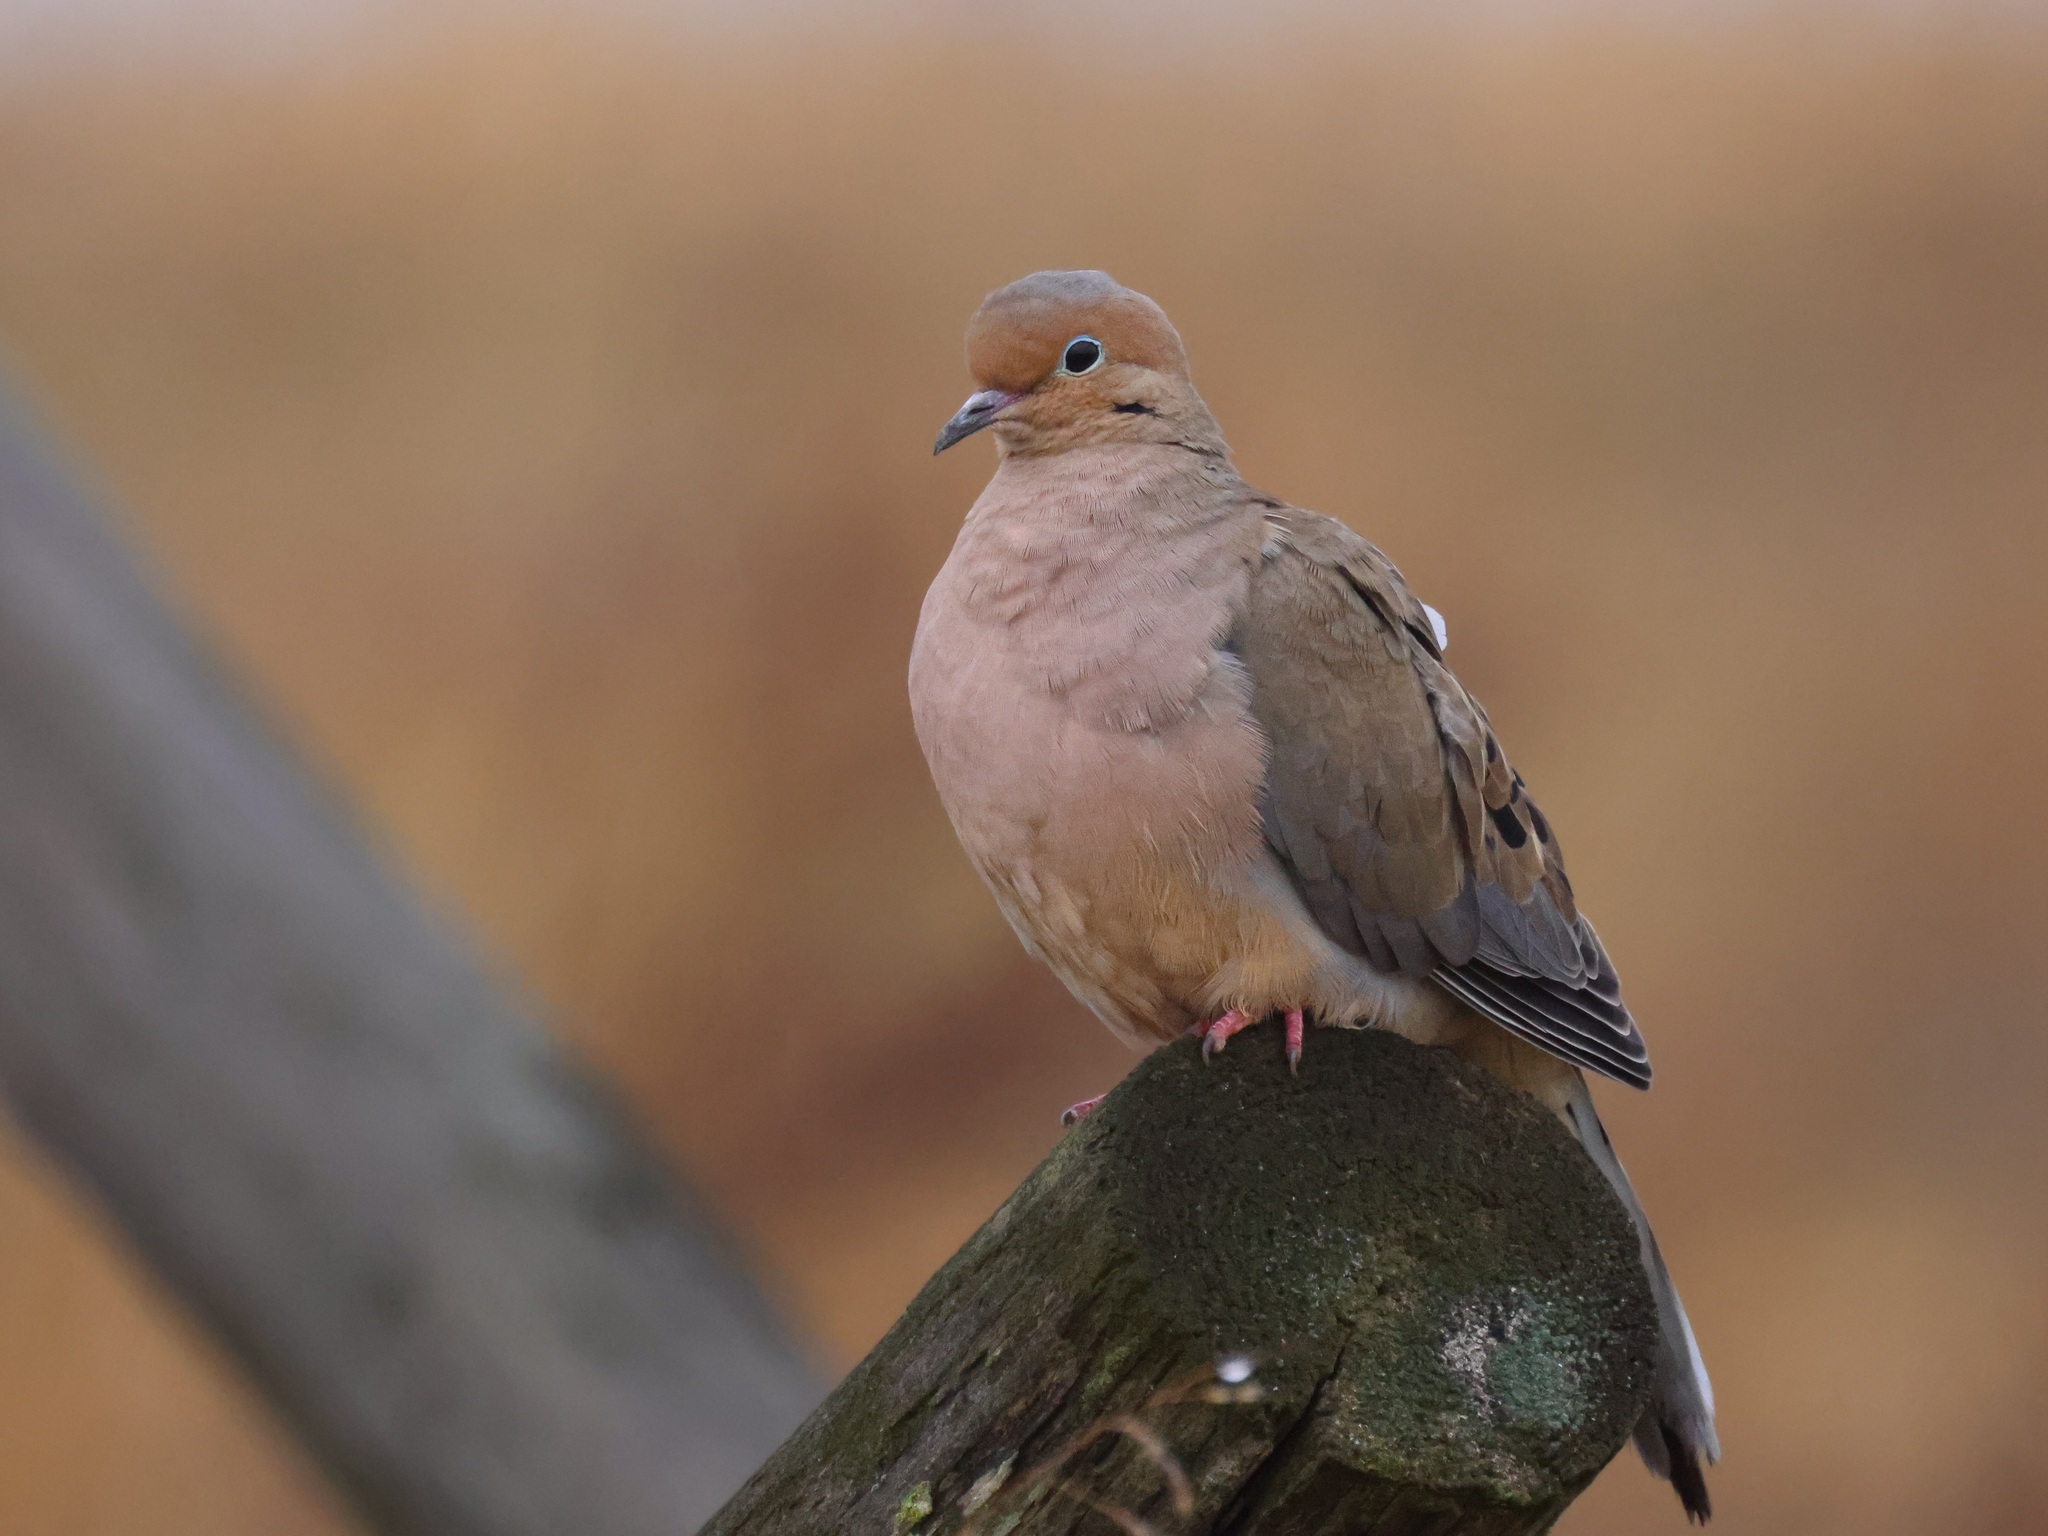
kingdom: Animalia
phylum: Chordata
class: Aves
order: Columbiformes
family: Columbidae
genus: Zenaida
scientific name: Zenaida macroura
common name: Mourning dove
